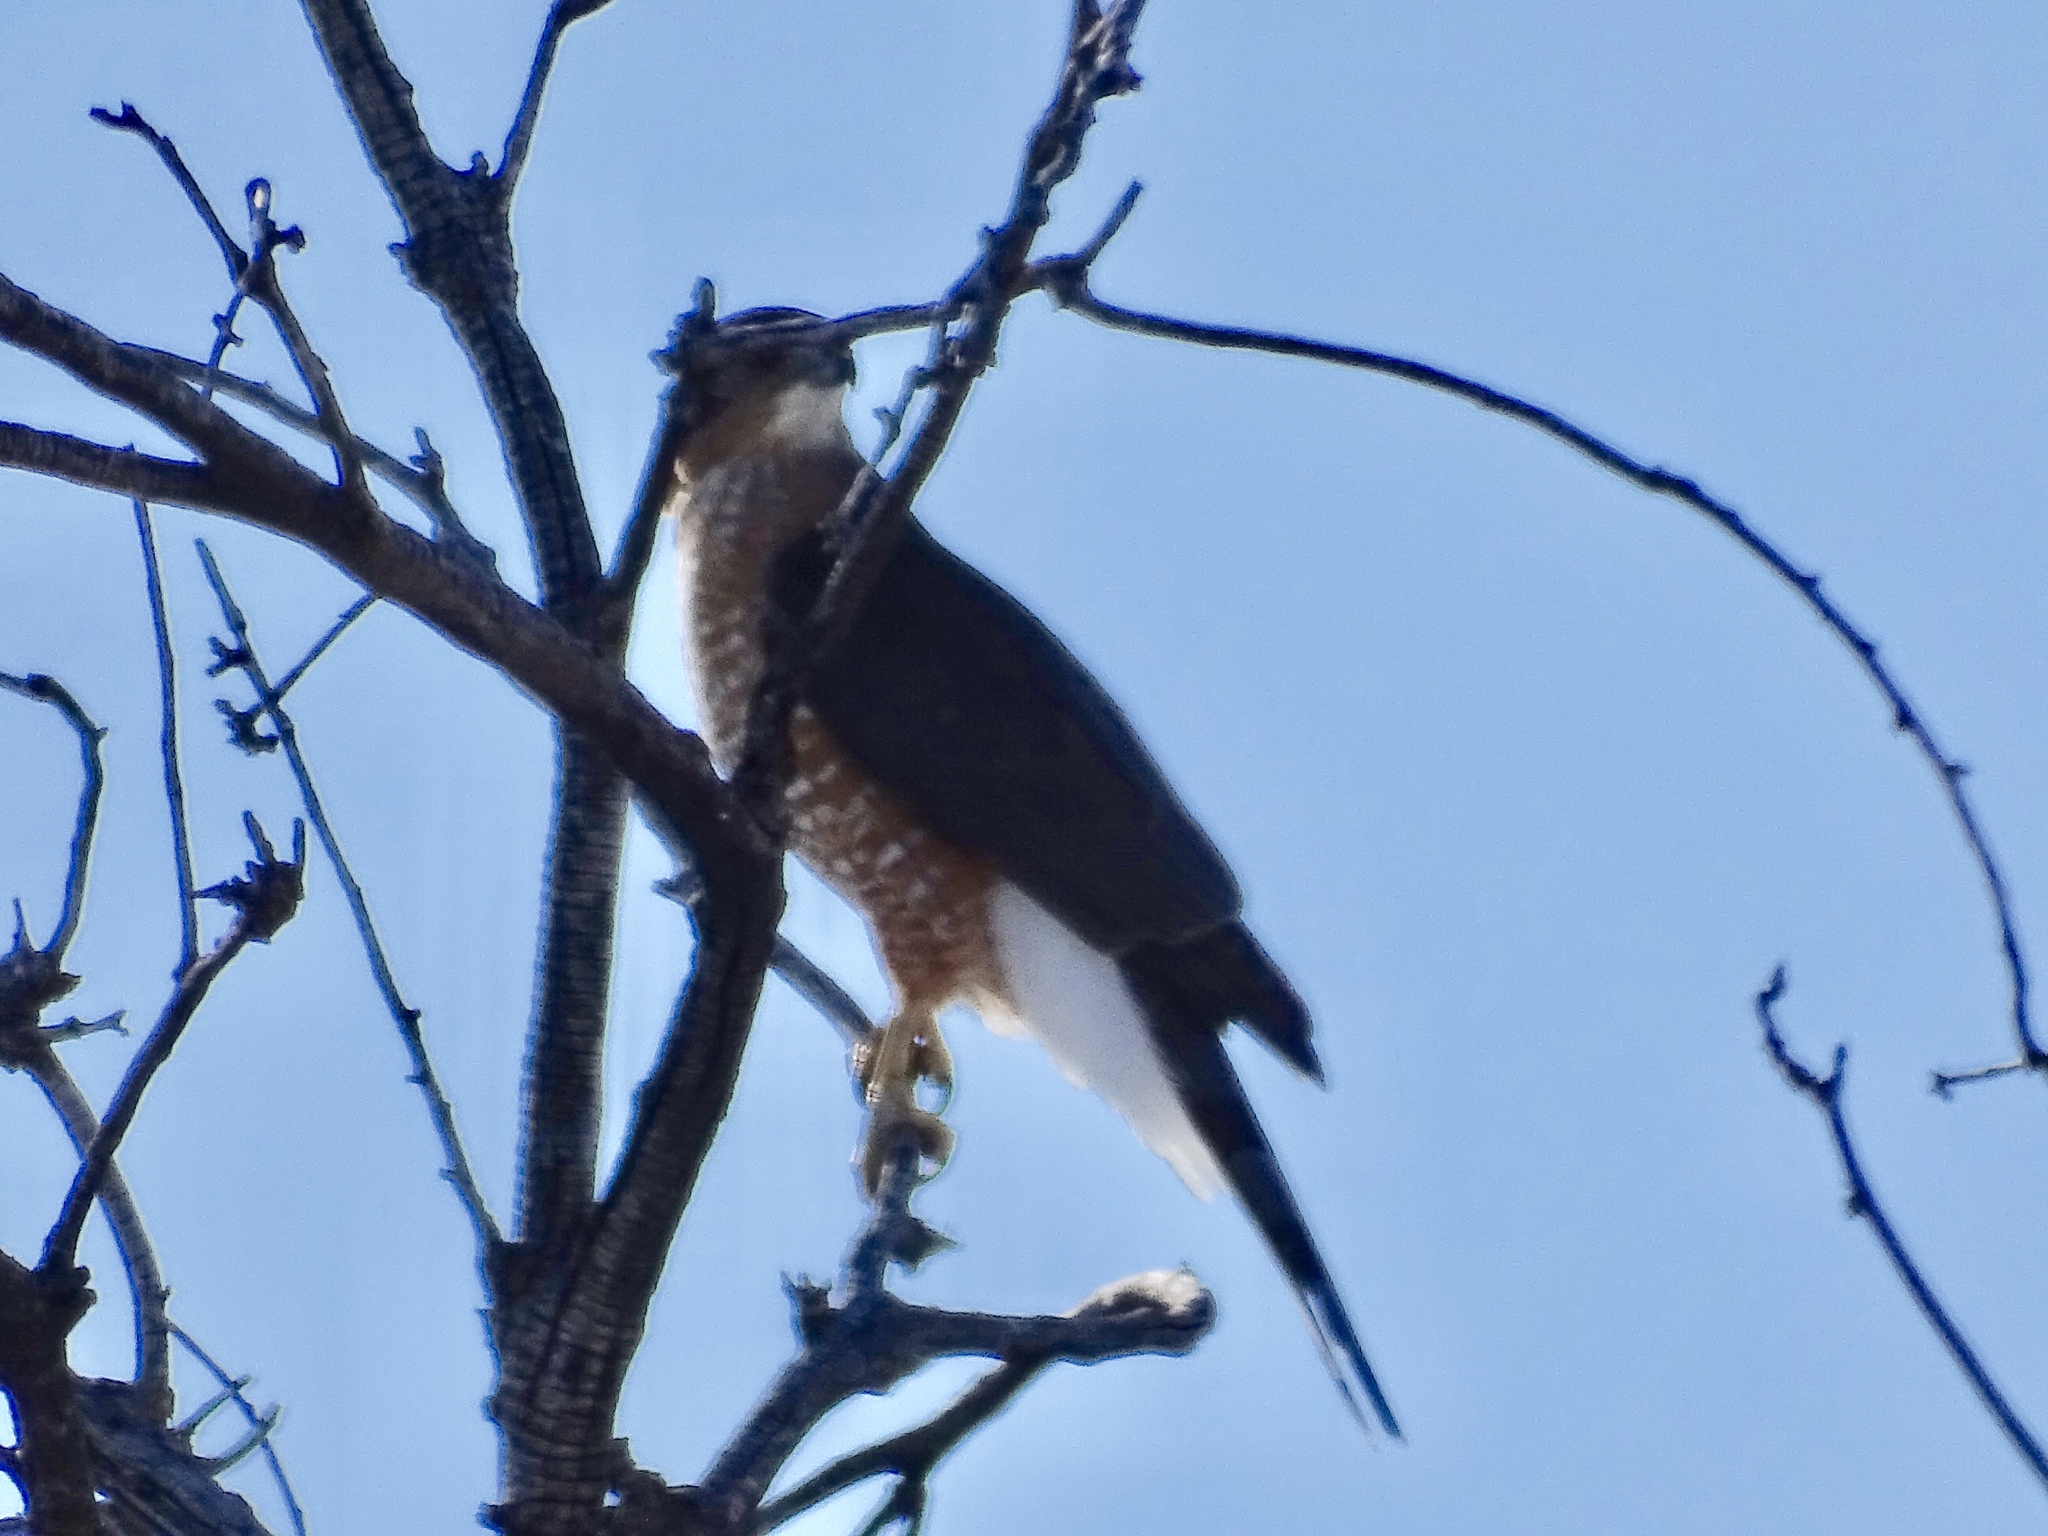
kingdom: Animalia
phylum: Chordata
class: Aves
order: Accipitriformes
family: Accipitridae
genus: Accipiter
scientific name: Accipiter cooperii
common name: Cooper's hawk
